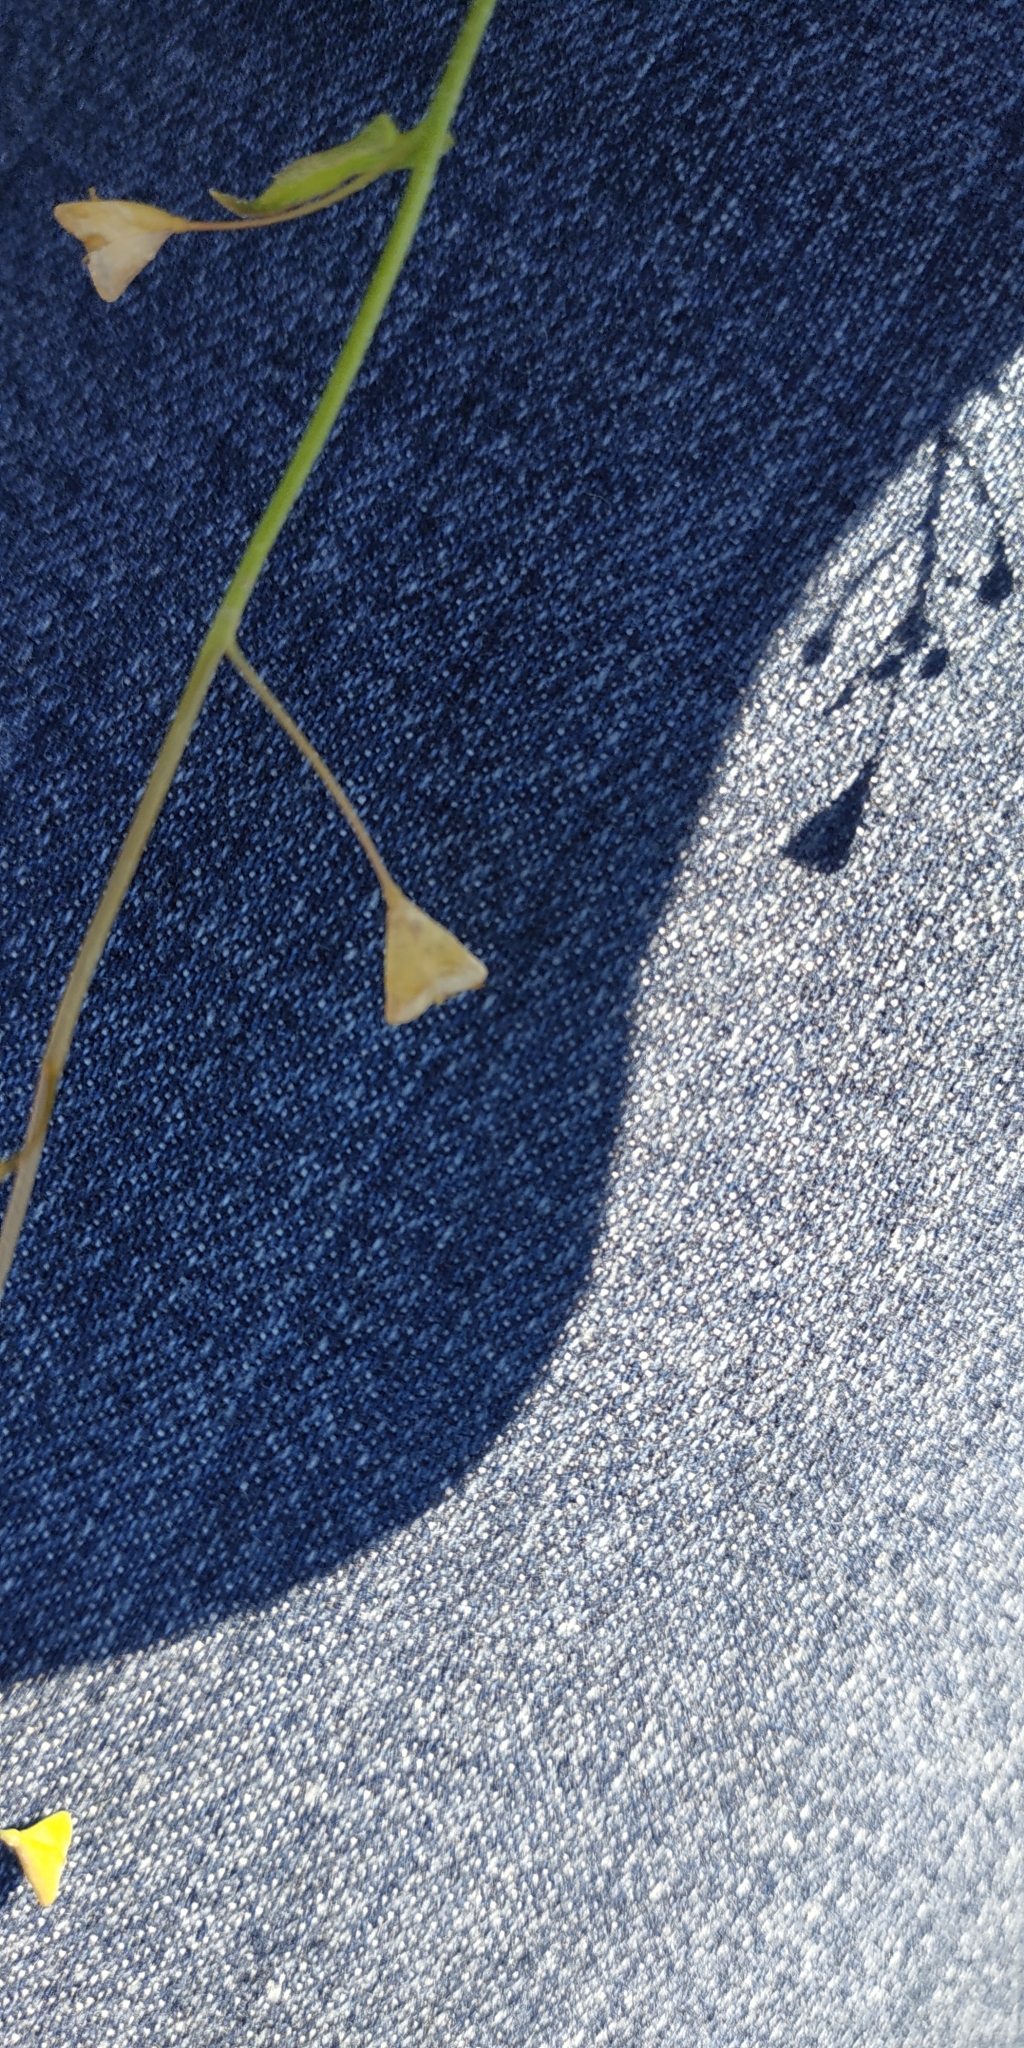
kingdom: Plantae
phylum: Tracheophyta
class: Magnoliopsida
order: Brassicales
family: Brassicaceae
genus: Capsella
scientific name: Capsella bursa-pastoris
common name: Shepherd's purse
